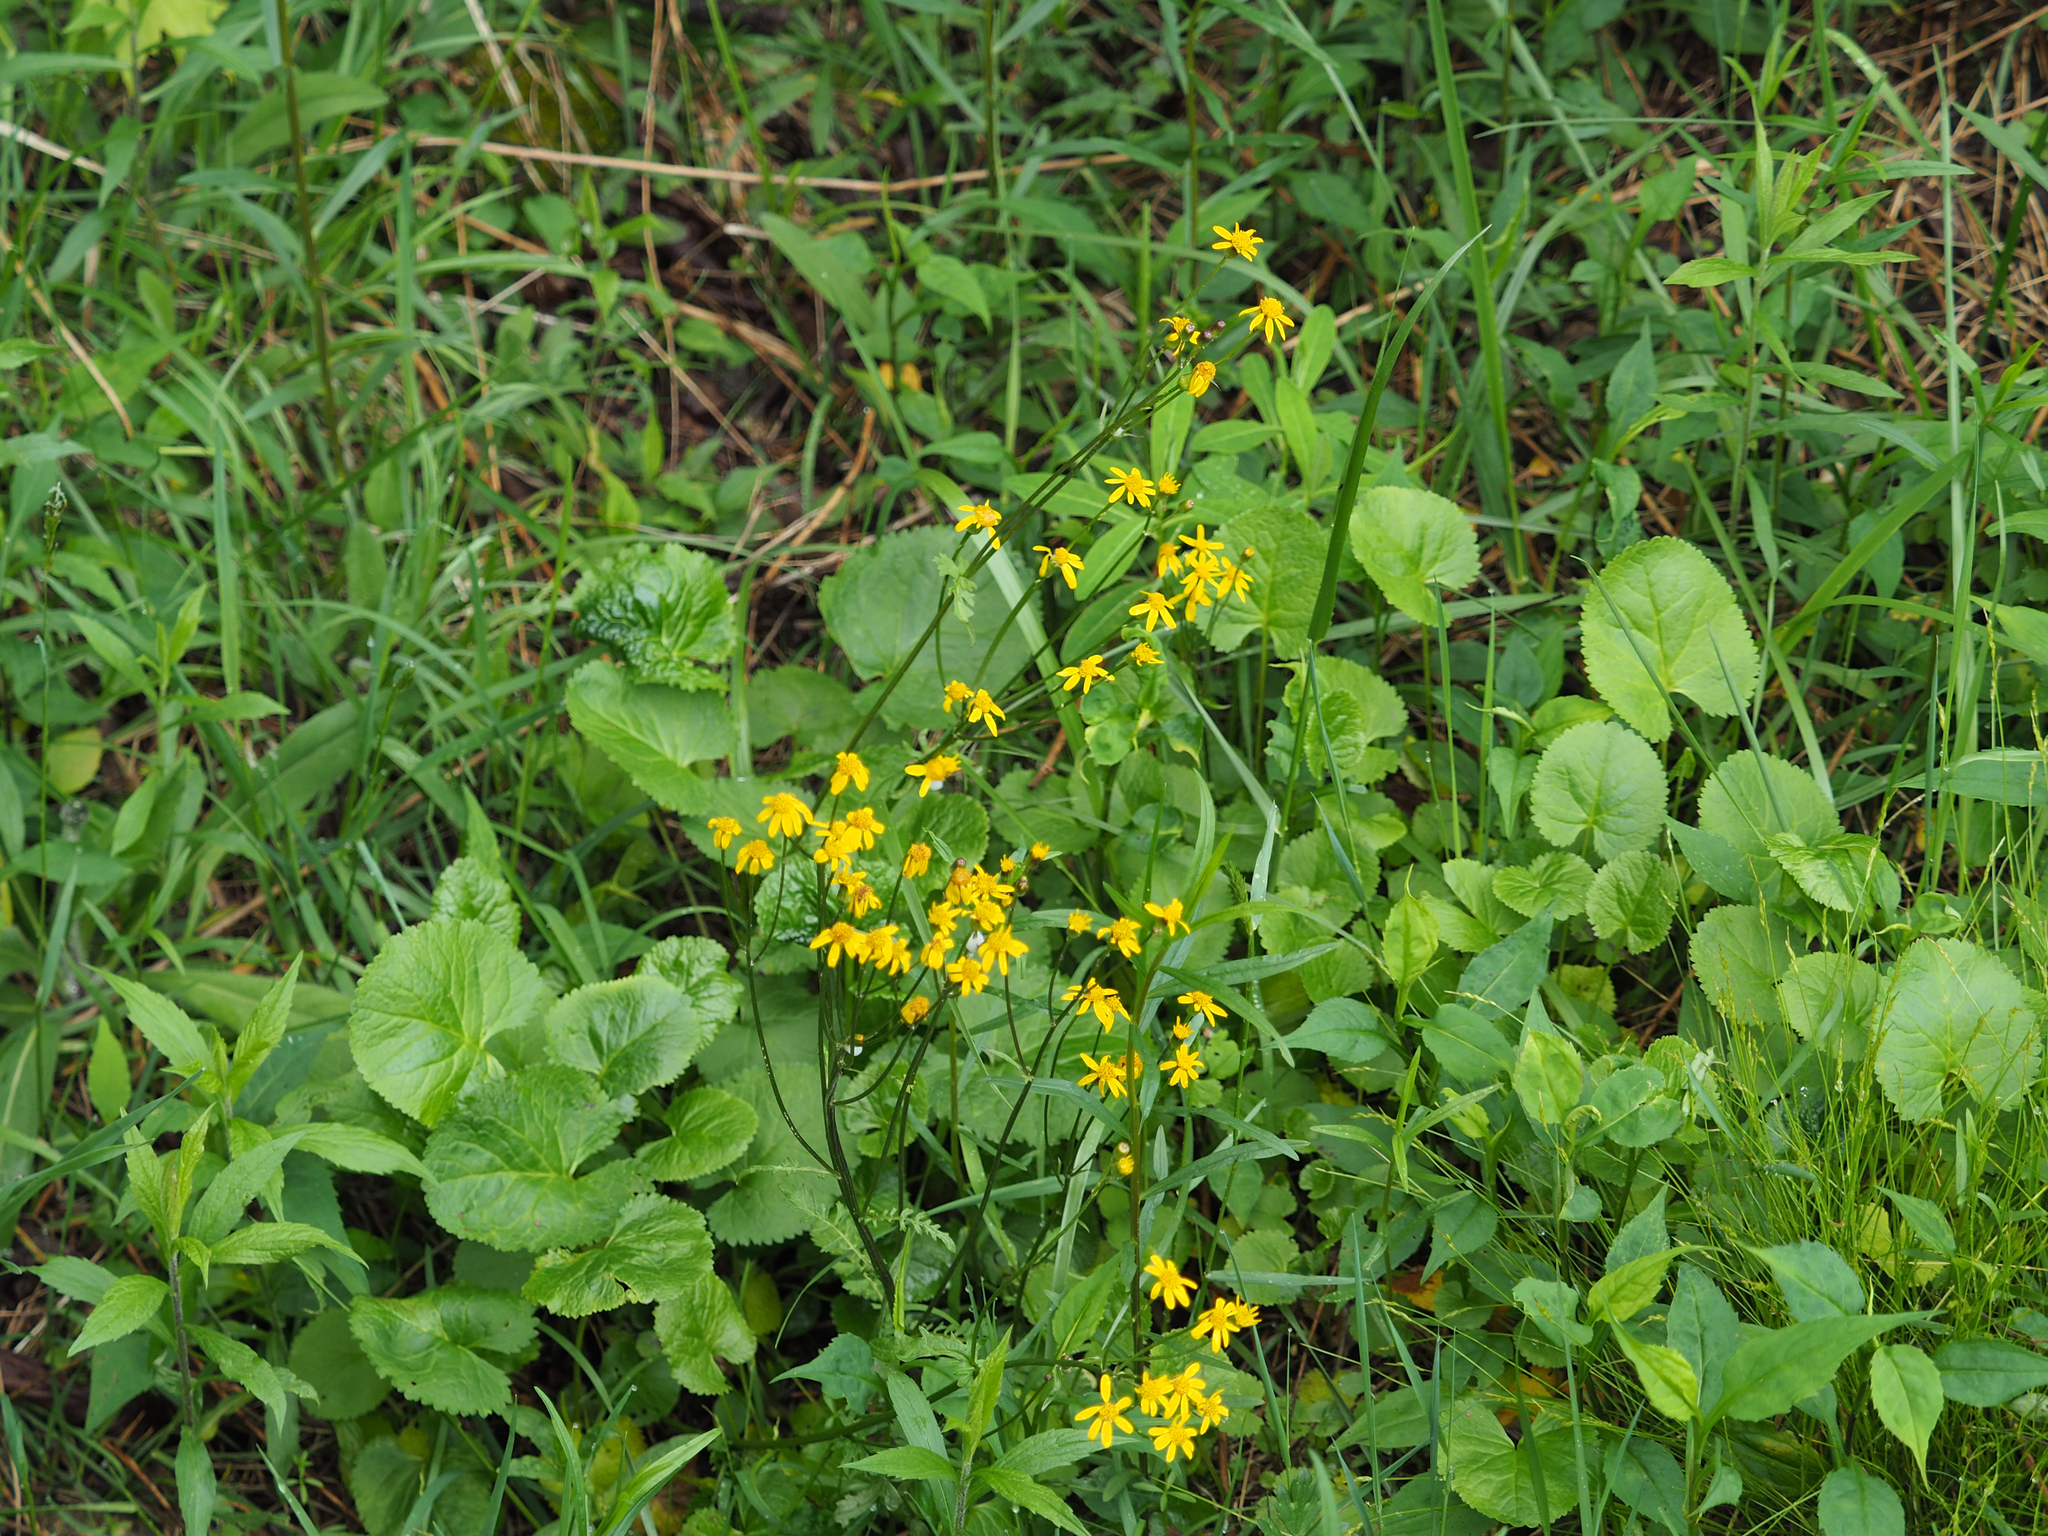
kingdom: Plantae
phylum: Tracheophyta
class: Magnoliopsida
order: Asterales
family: Asteraceae
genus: Packera
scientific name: Packera aurea
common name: Golden groundsel
